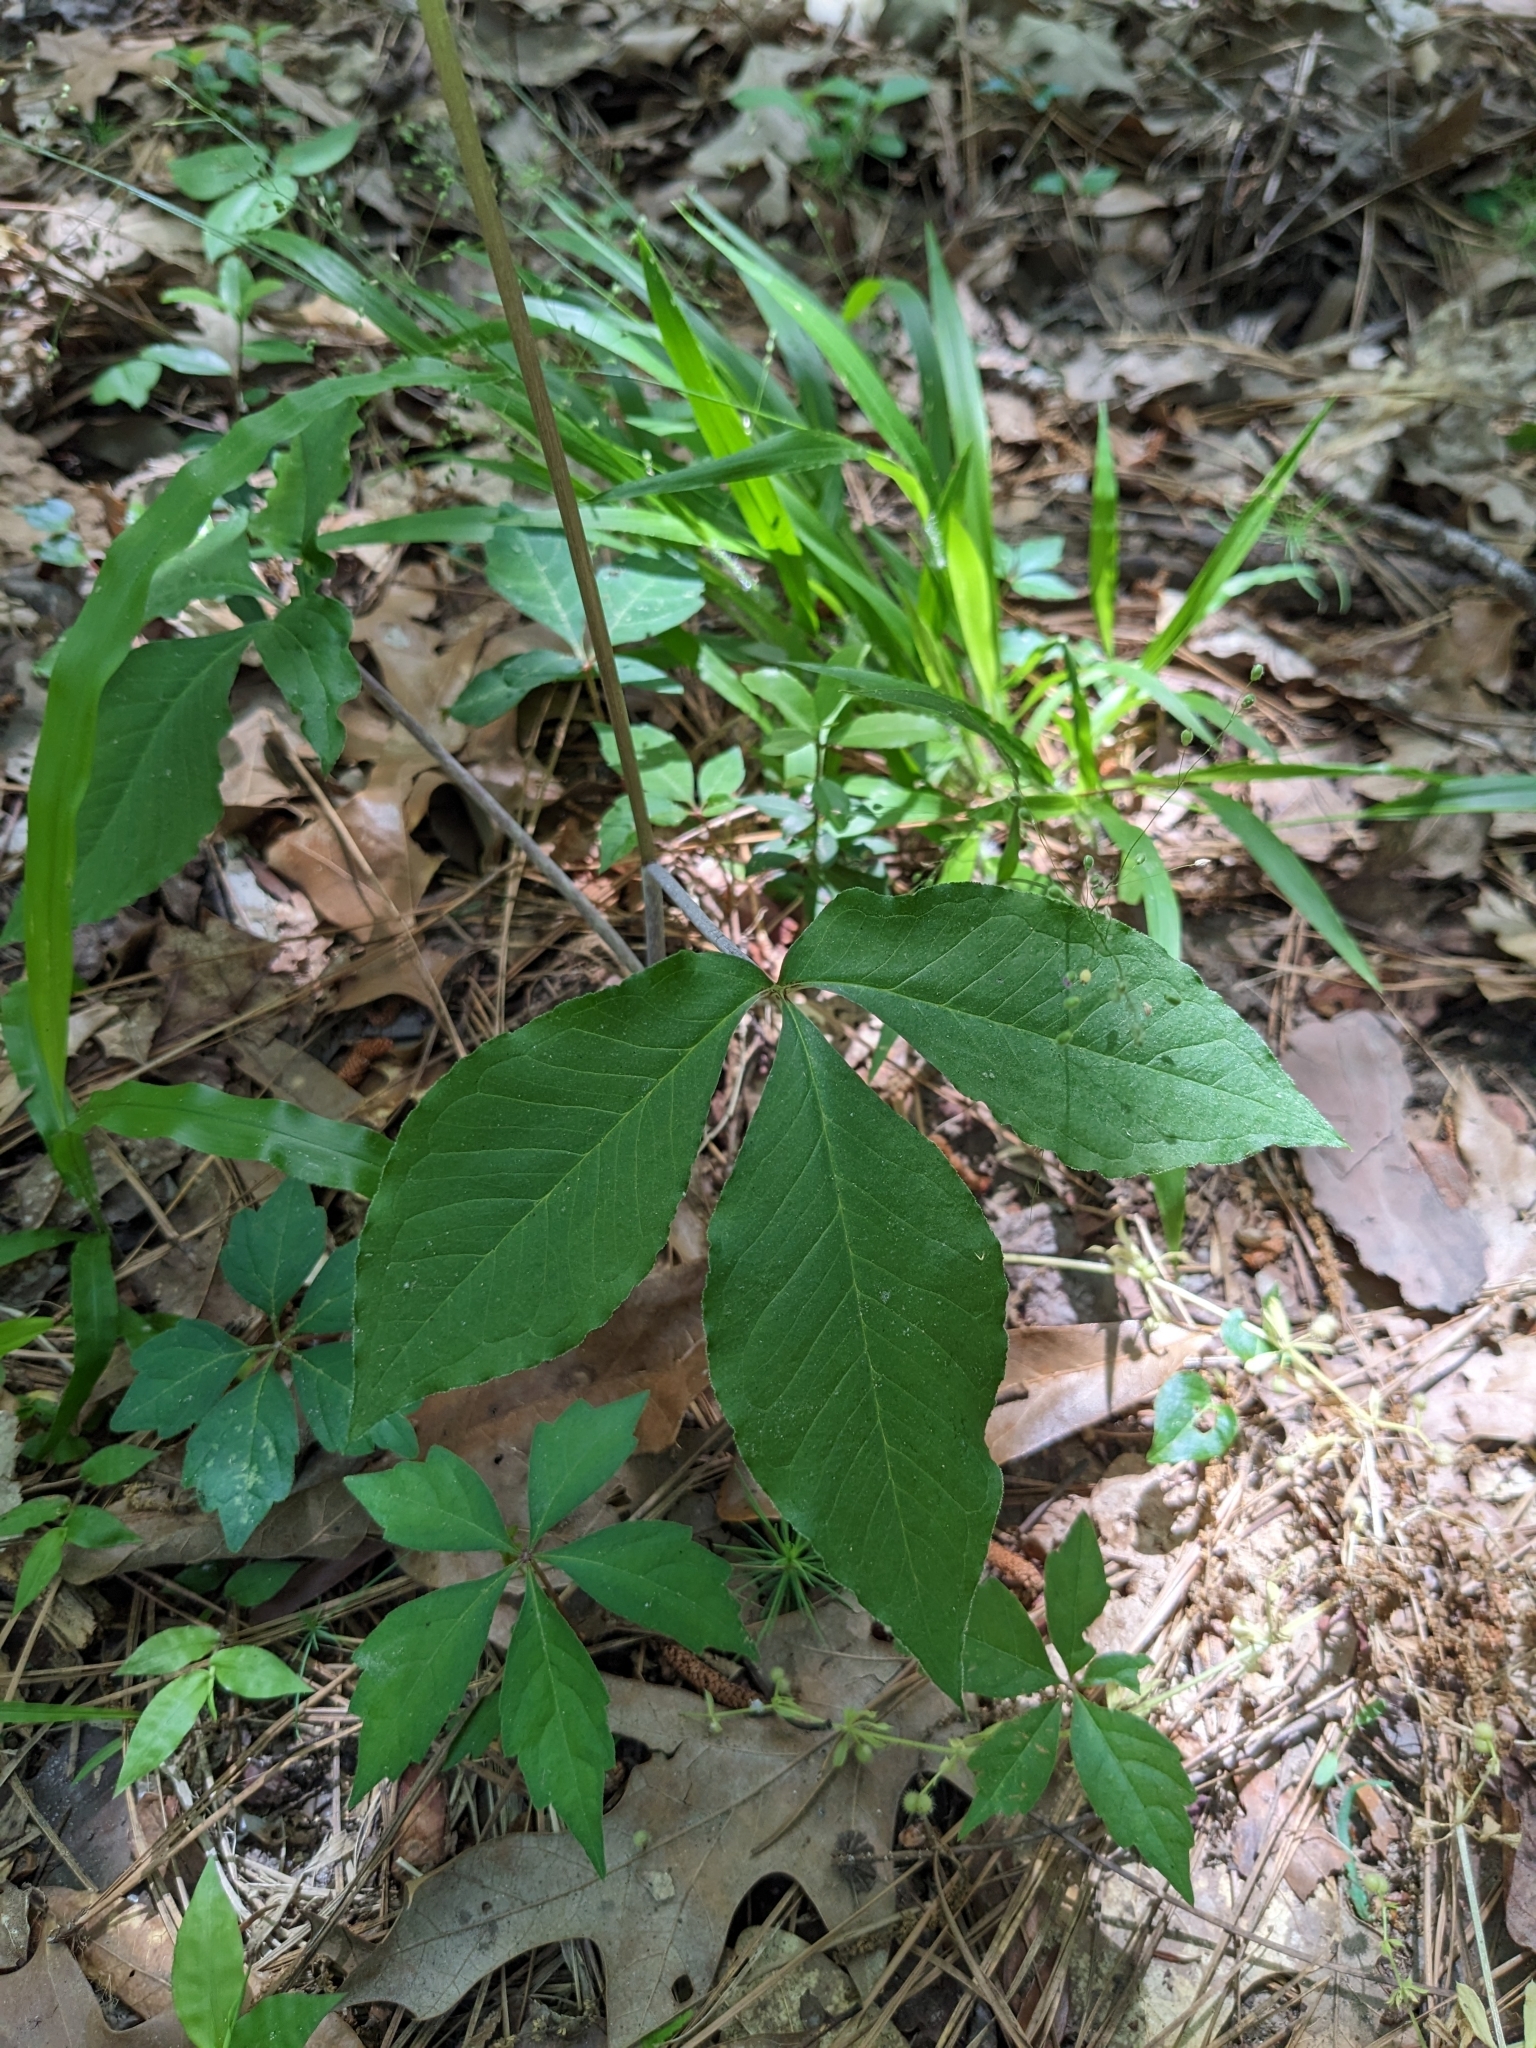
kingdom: Plantae
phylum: Tracheophyta
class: Liliopsida
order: Alismatales
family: Araceae
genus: Arisaema
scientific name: Arisaema quinatum
